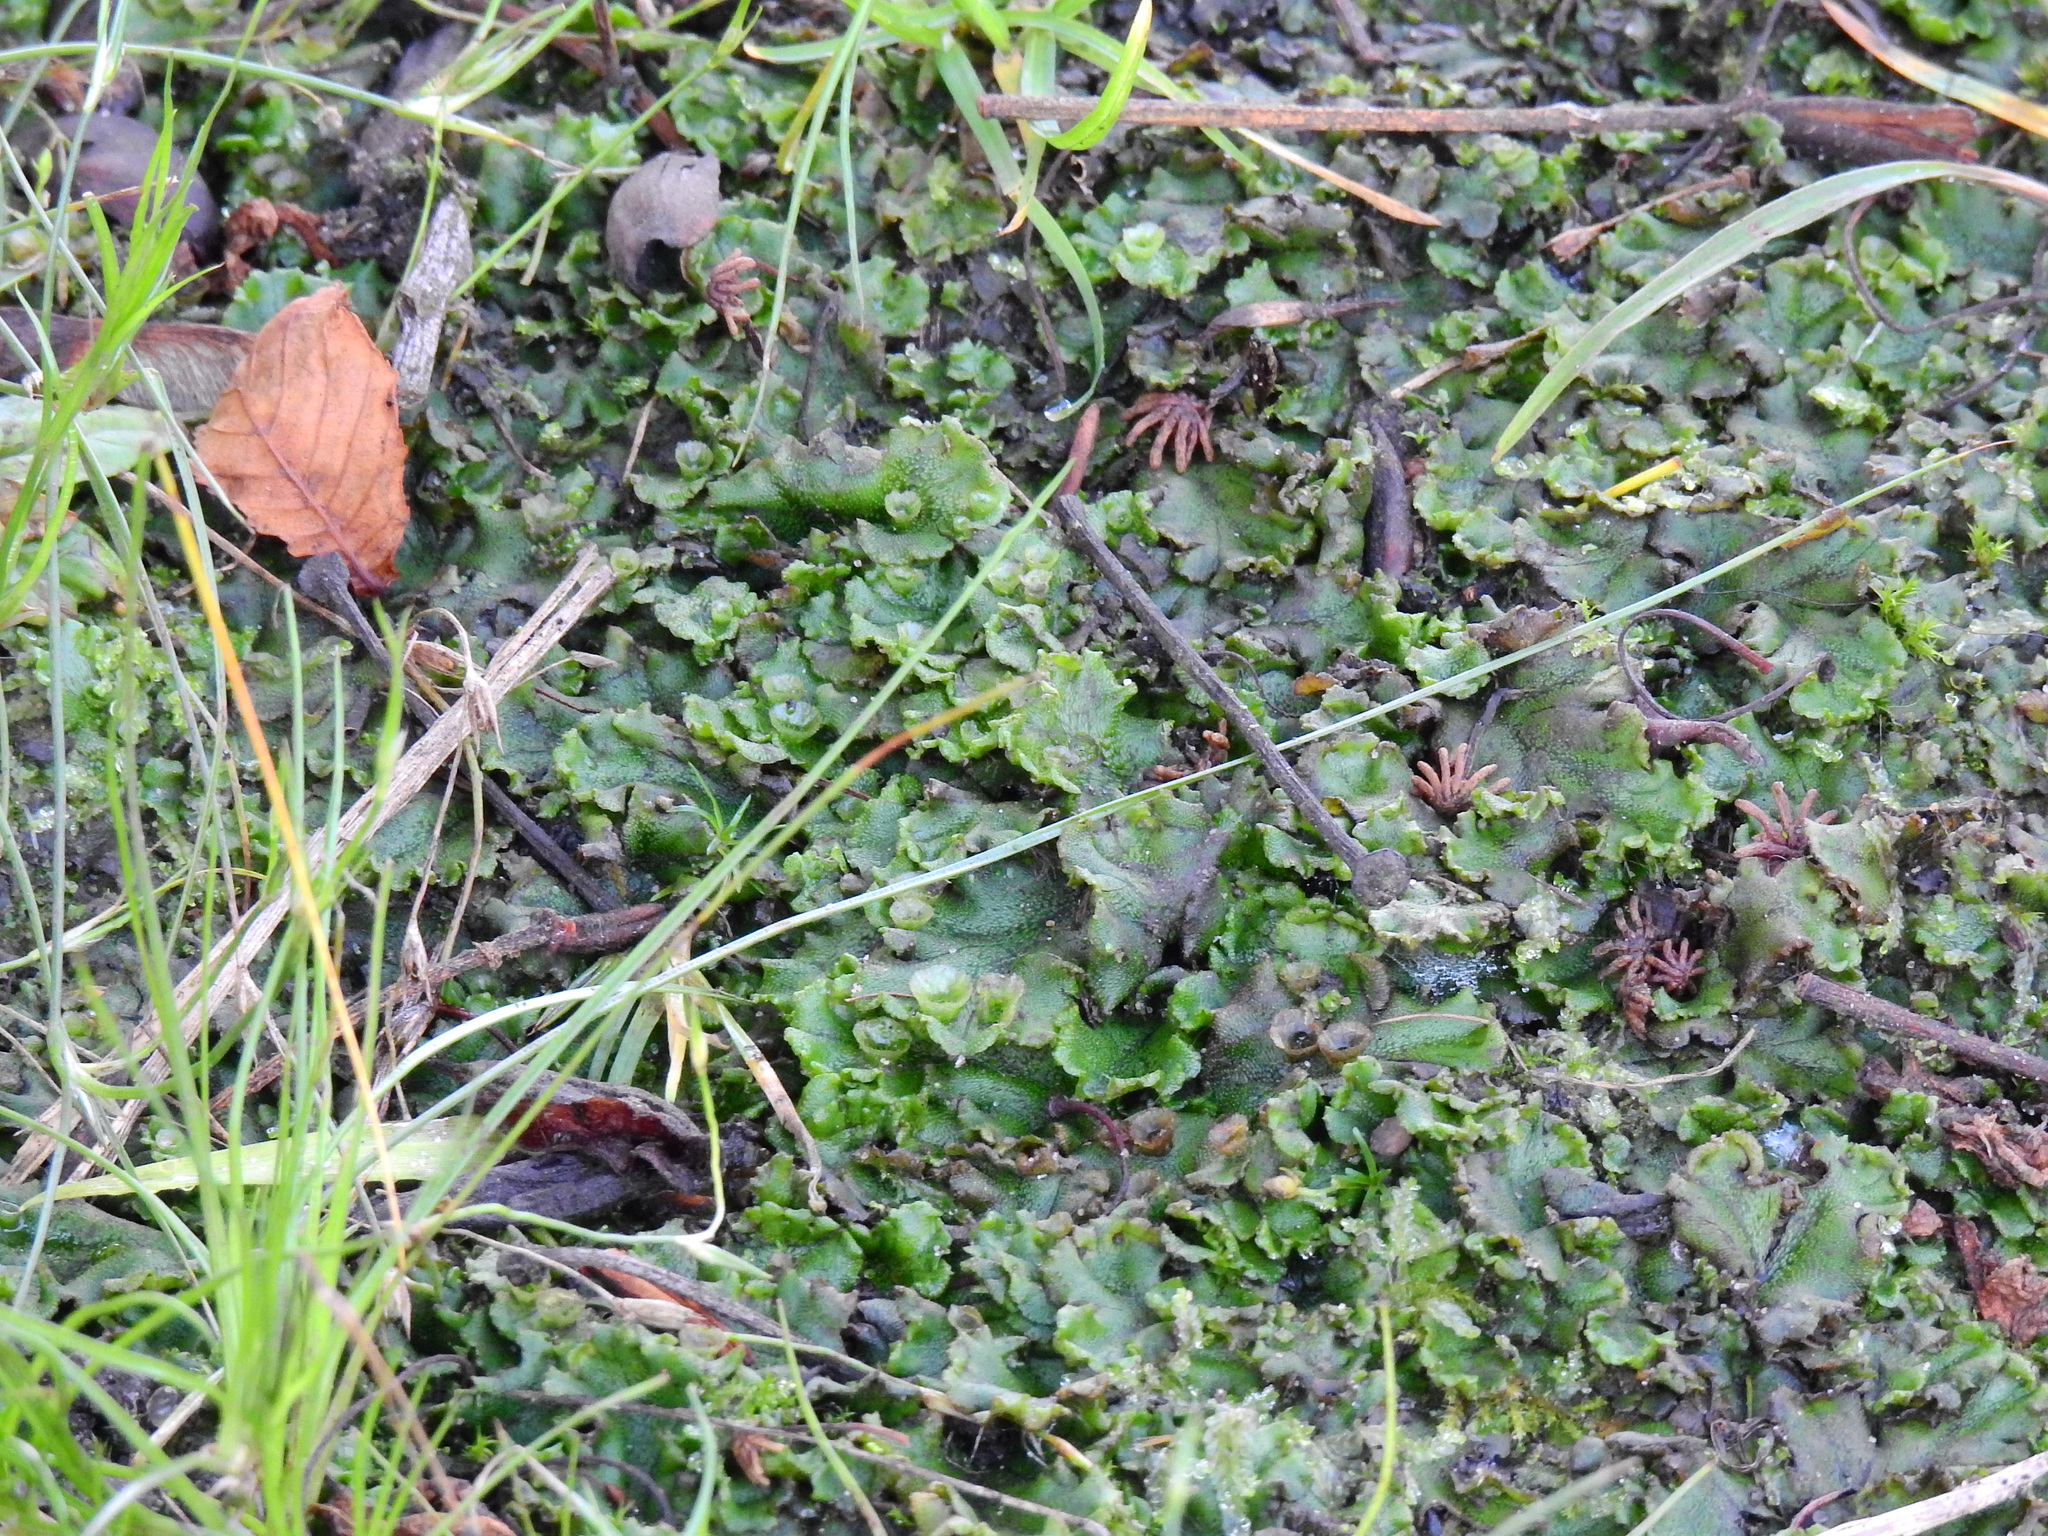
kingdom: Plantae
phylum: Marchantiophyta
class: Marchantiopsida
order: Marchantiales
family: Marchantiaceae
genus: Marchantia
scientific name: Marchantia polymorpha
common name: Common liverwort
